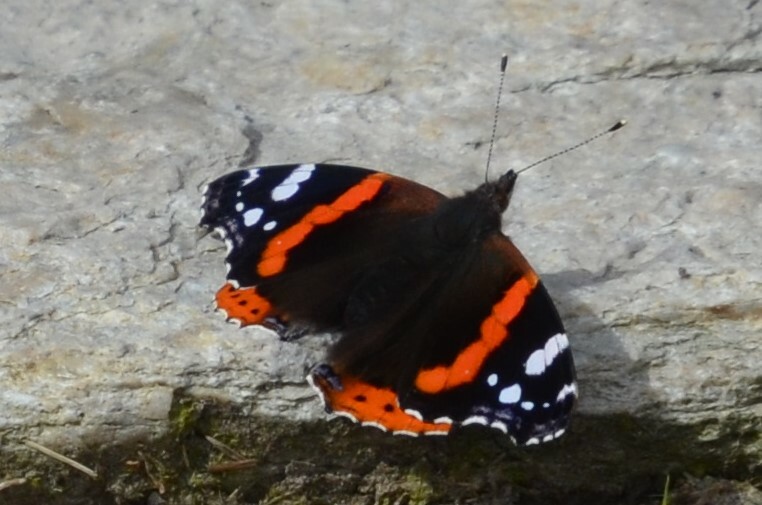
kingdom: Animalia
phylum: Arthropoda
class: Insecta
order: Lepidoptera
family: Nymphalidae
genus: Vanessa
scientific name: Vanessa atalanta
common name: Red admiral
